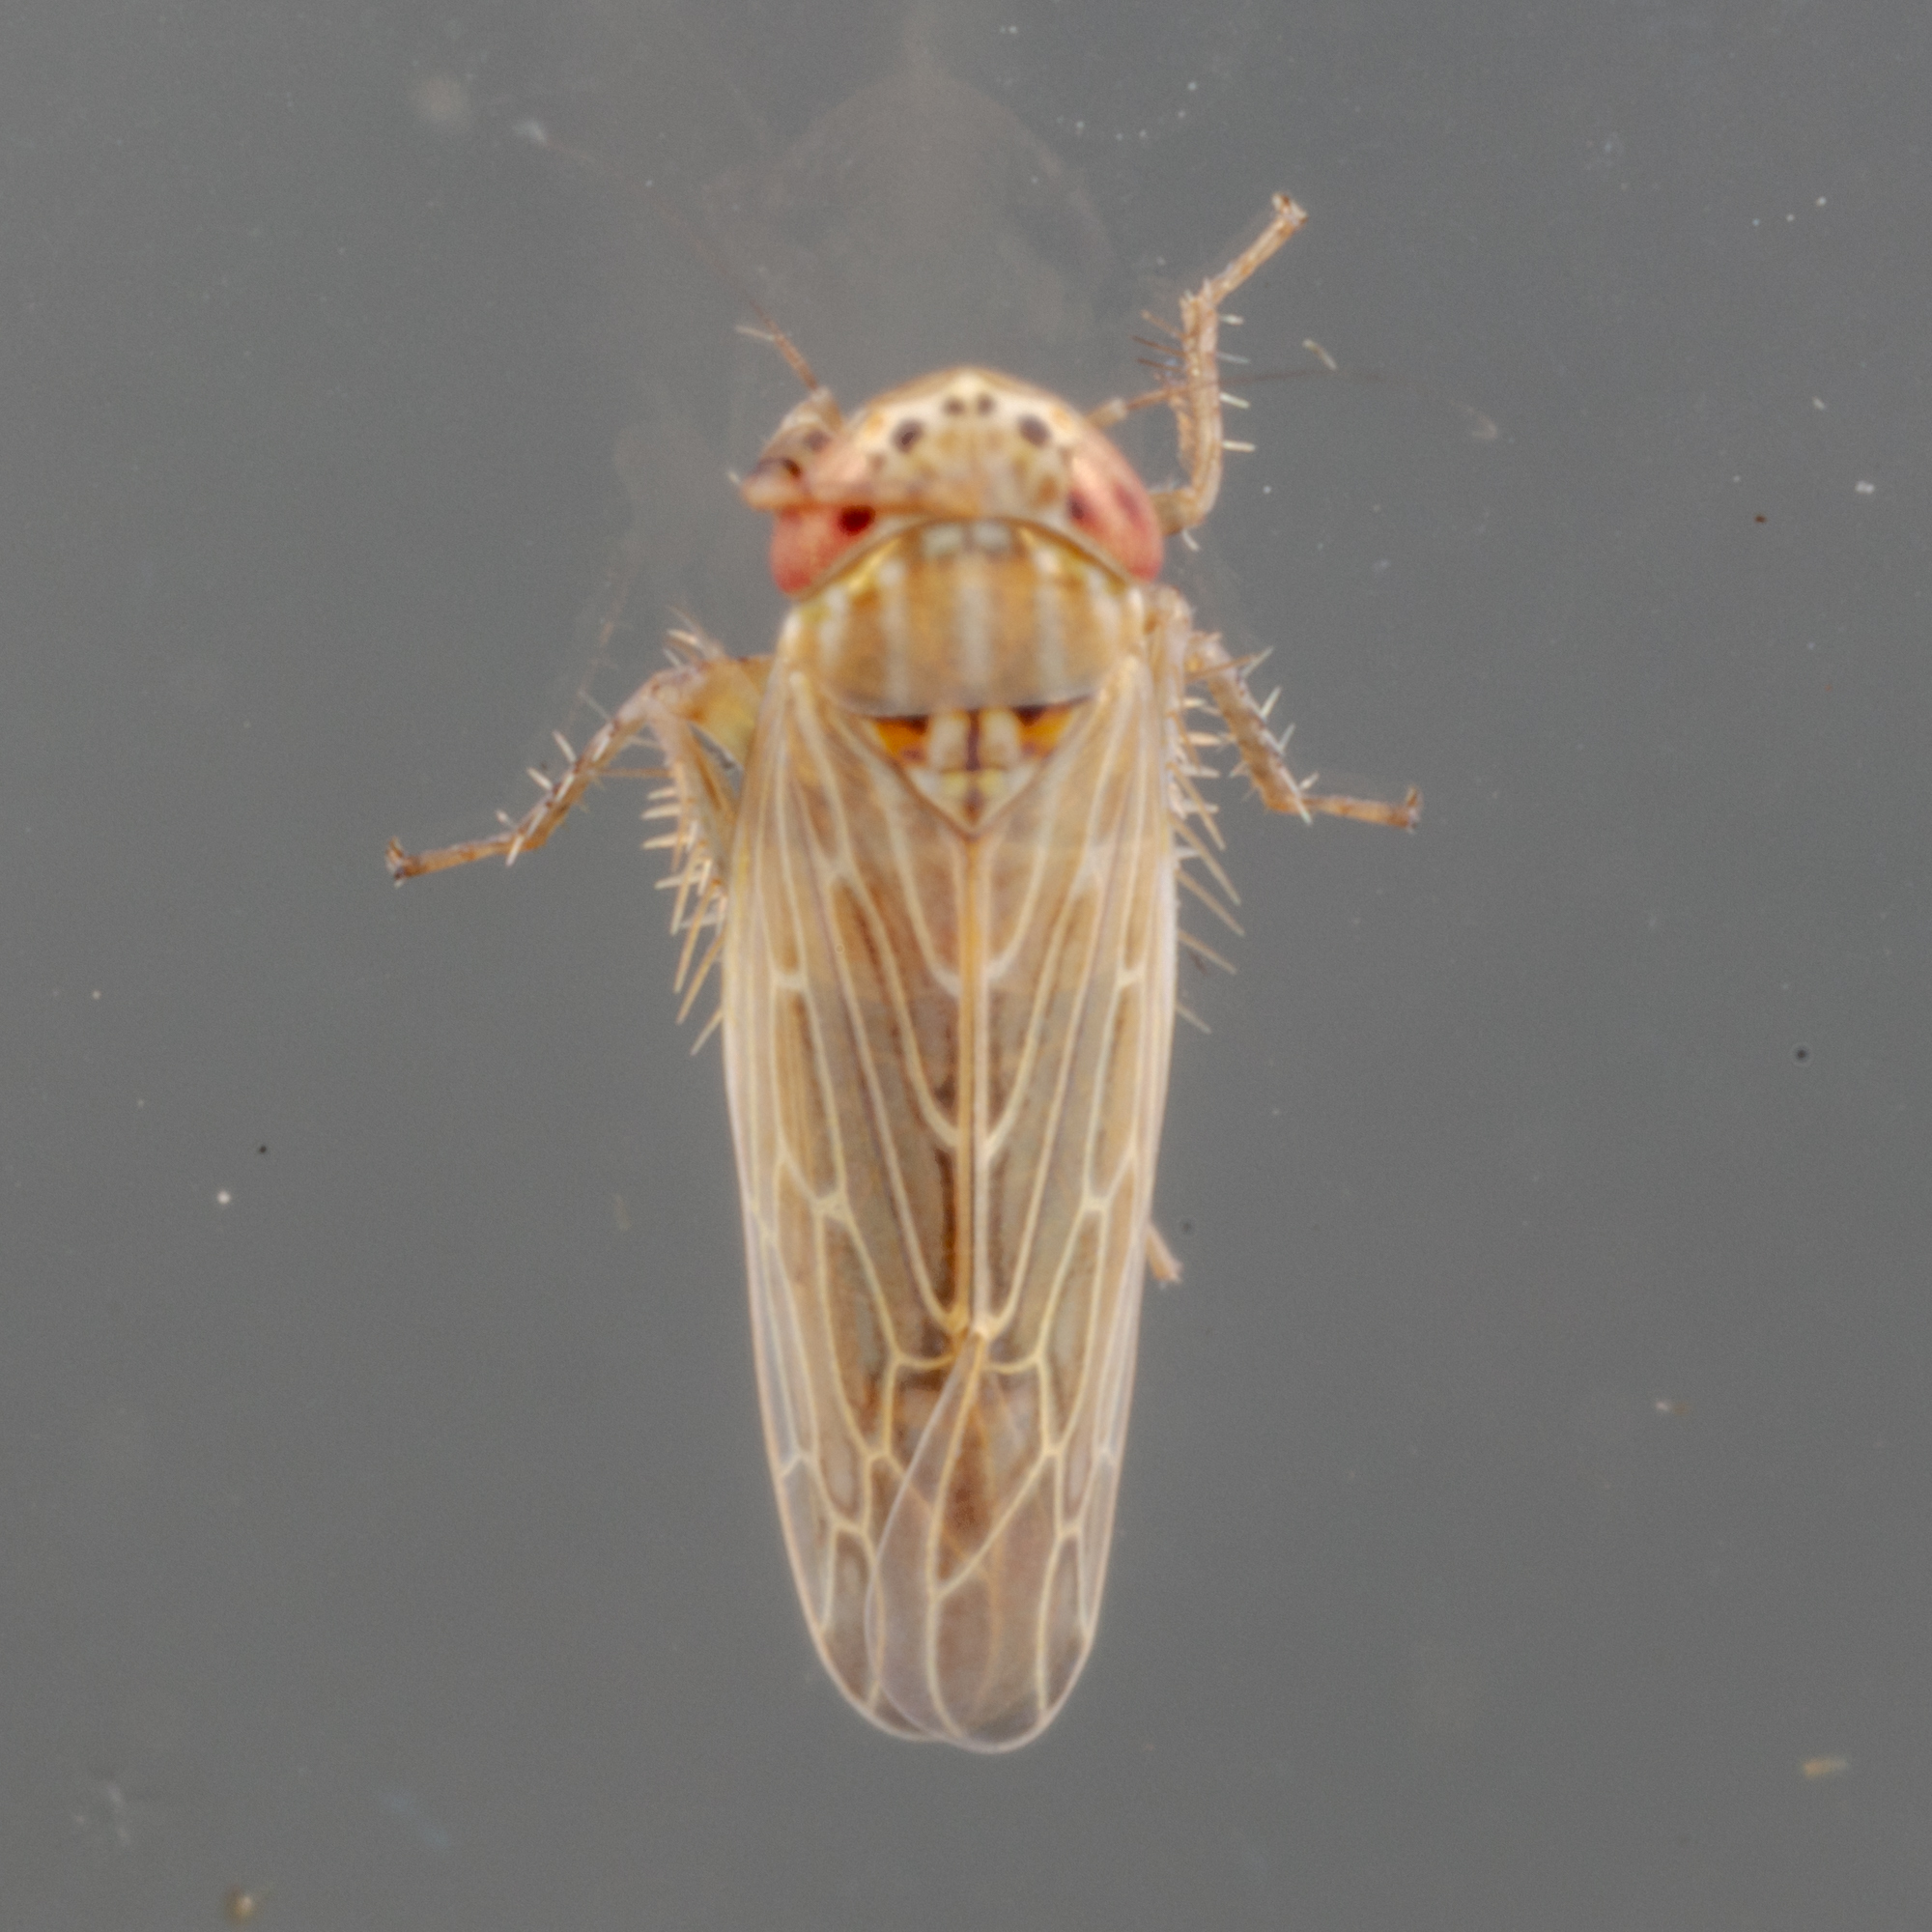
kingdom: Animalia
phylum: Arthropoda
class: Insecta
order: Hemiptera
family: Cicadellidae
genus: Graminella
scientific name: Graminella sonora
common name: Lesser lawn leafhopper
